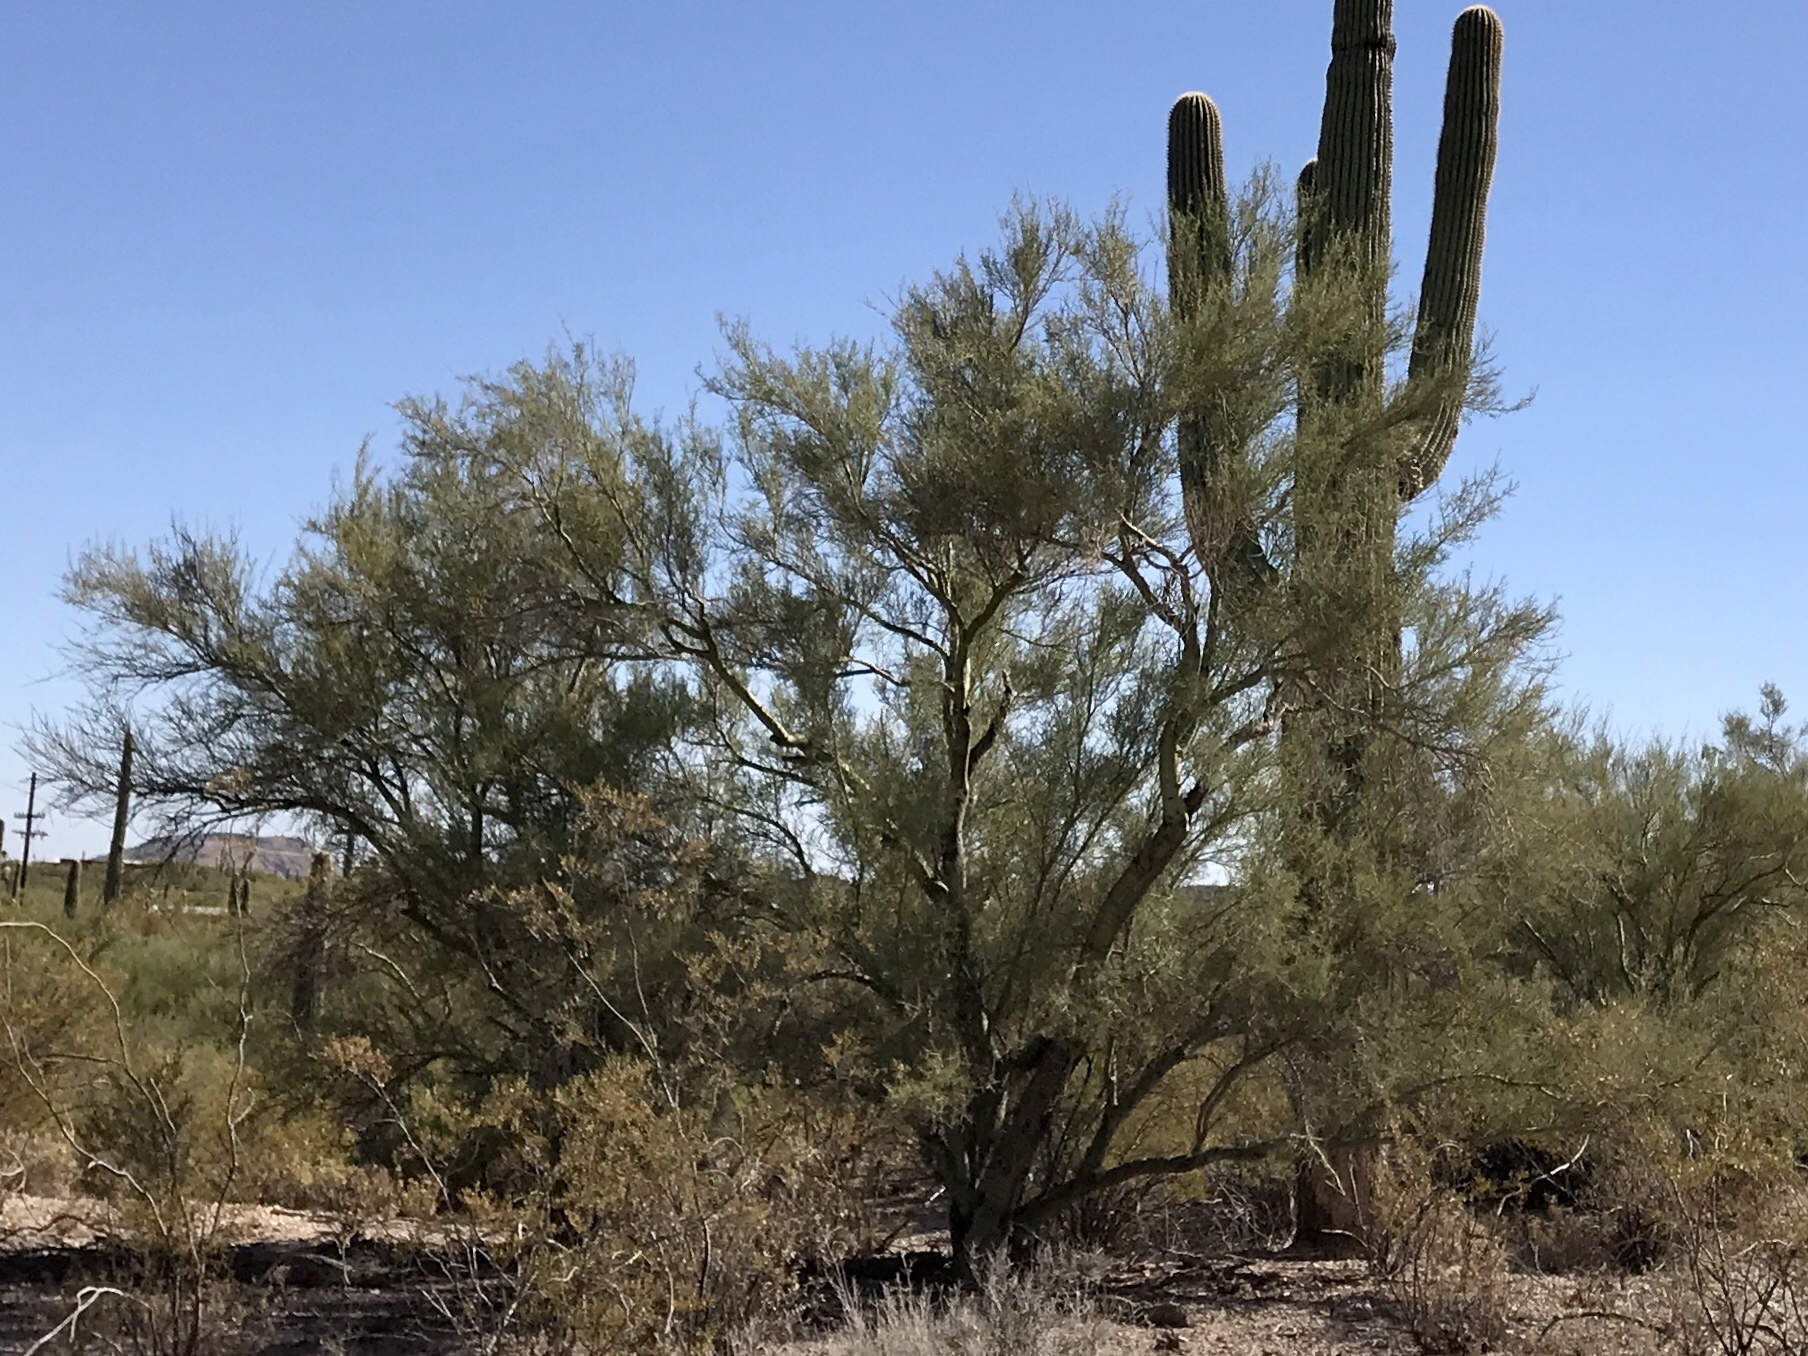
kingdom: Plantae
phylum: Tracheophyta
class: Magnoliopsida
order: Fabales
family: Fabaceae
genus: Parkinsonia
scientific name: Parkinsonia microphylla
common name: Yellow paloverde
